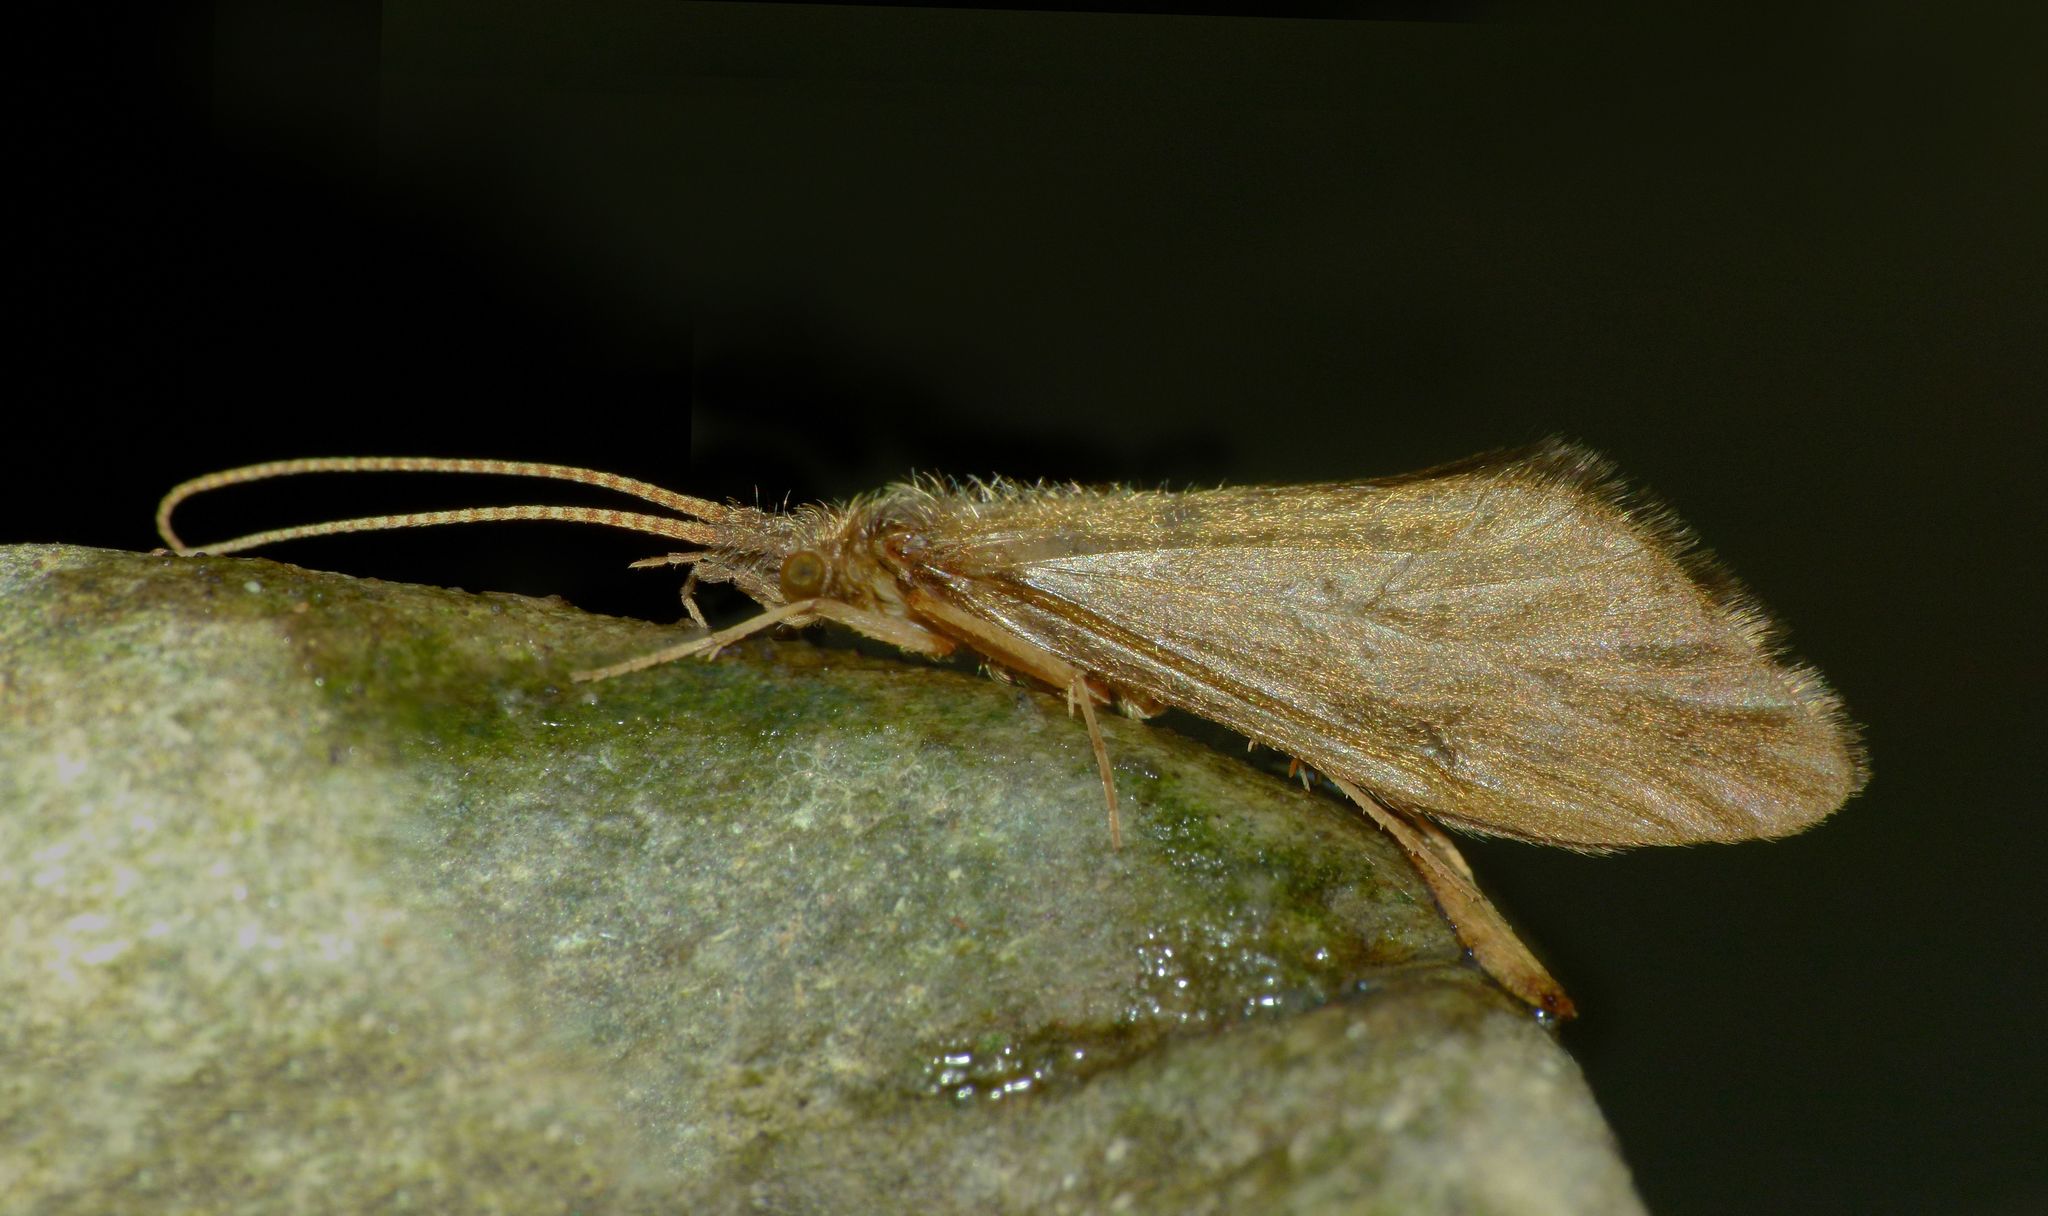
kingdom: Animalia
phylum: Arthropoda
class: Insecta
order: Trichoptera
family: Conoesucidae
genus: Olinga
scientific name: Olinga feredayi
